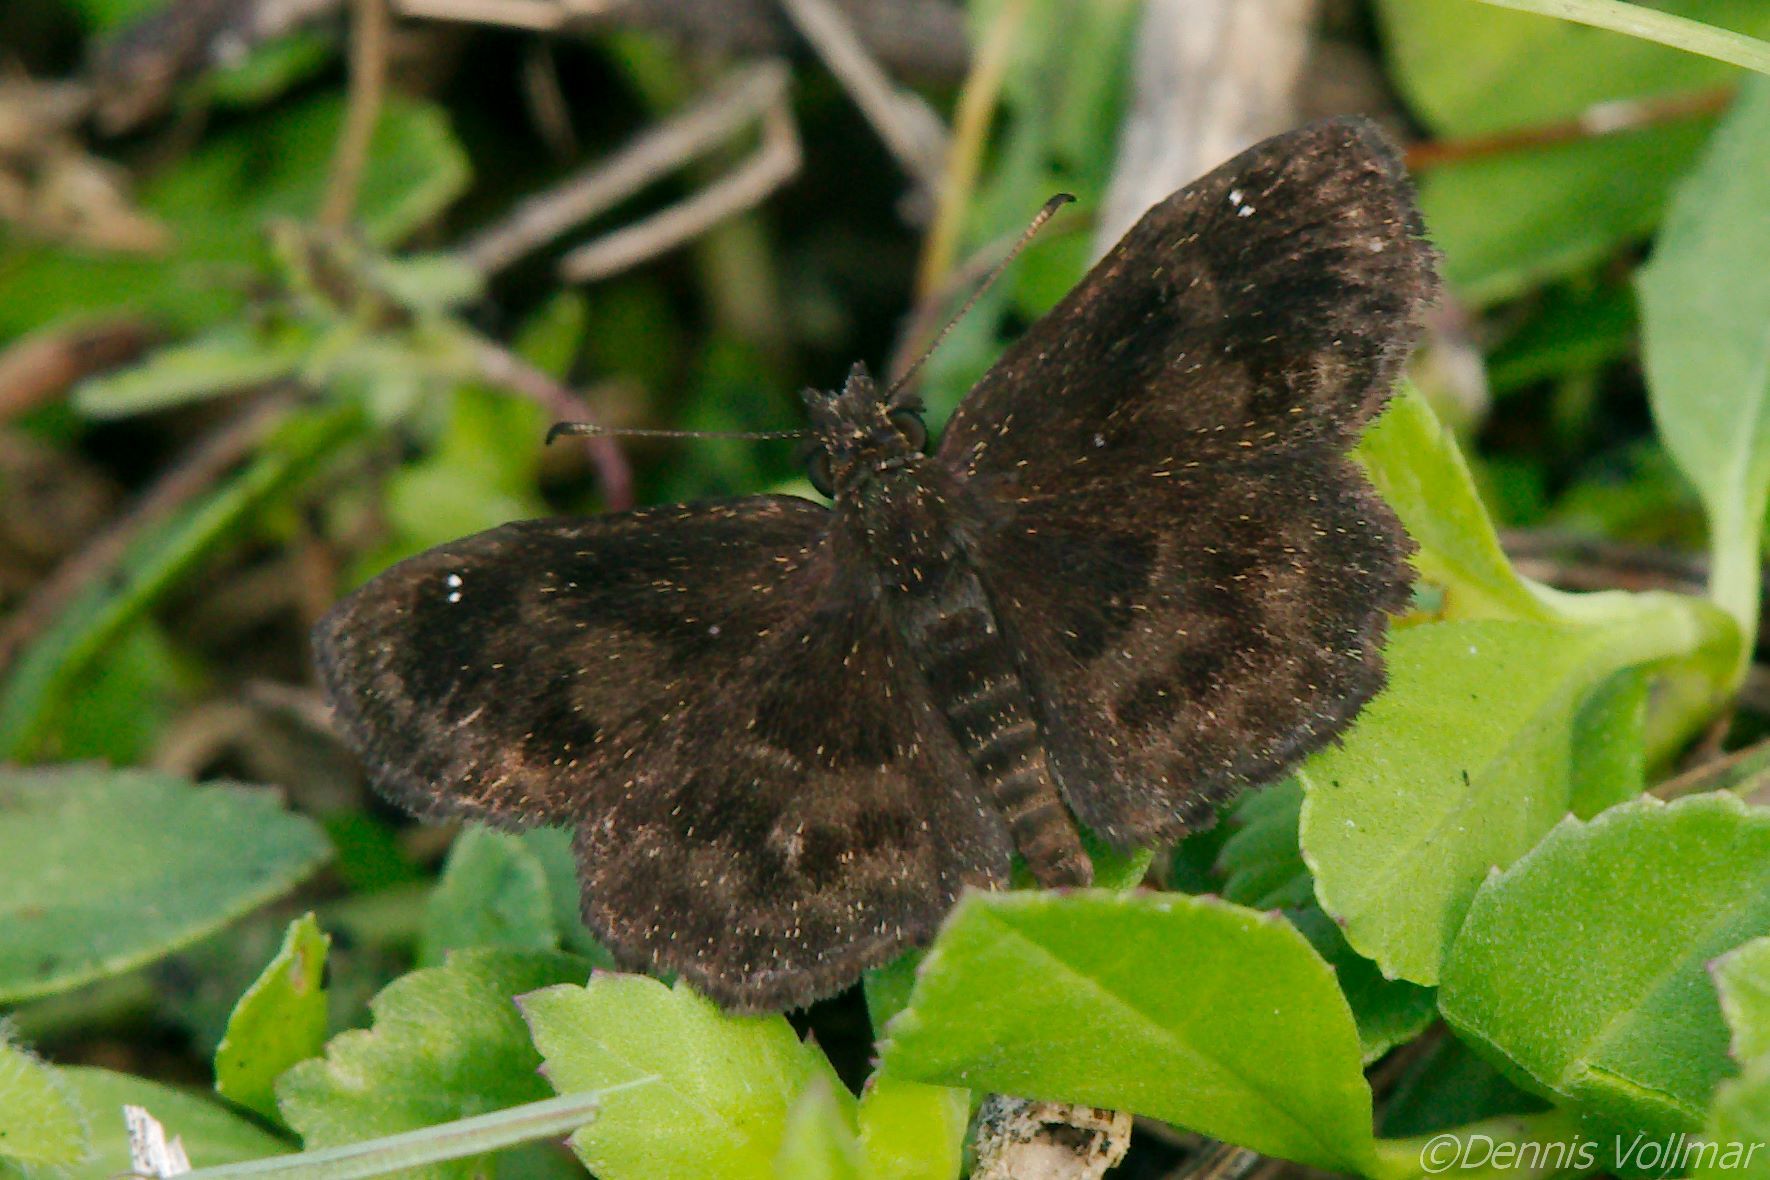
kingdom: Animalia
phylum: Arthropoda
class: Insecta
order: Lepidoptera
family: Hesperiidae
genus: Staphylus
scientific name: Staphylus mazans
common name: Mazans scallopwing
